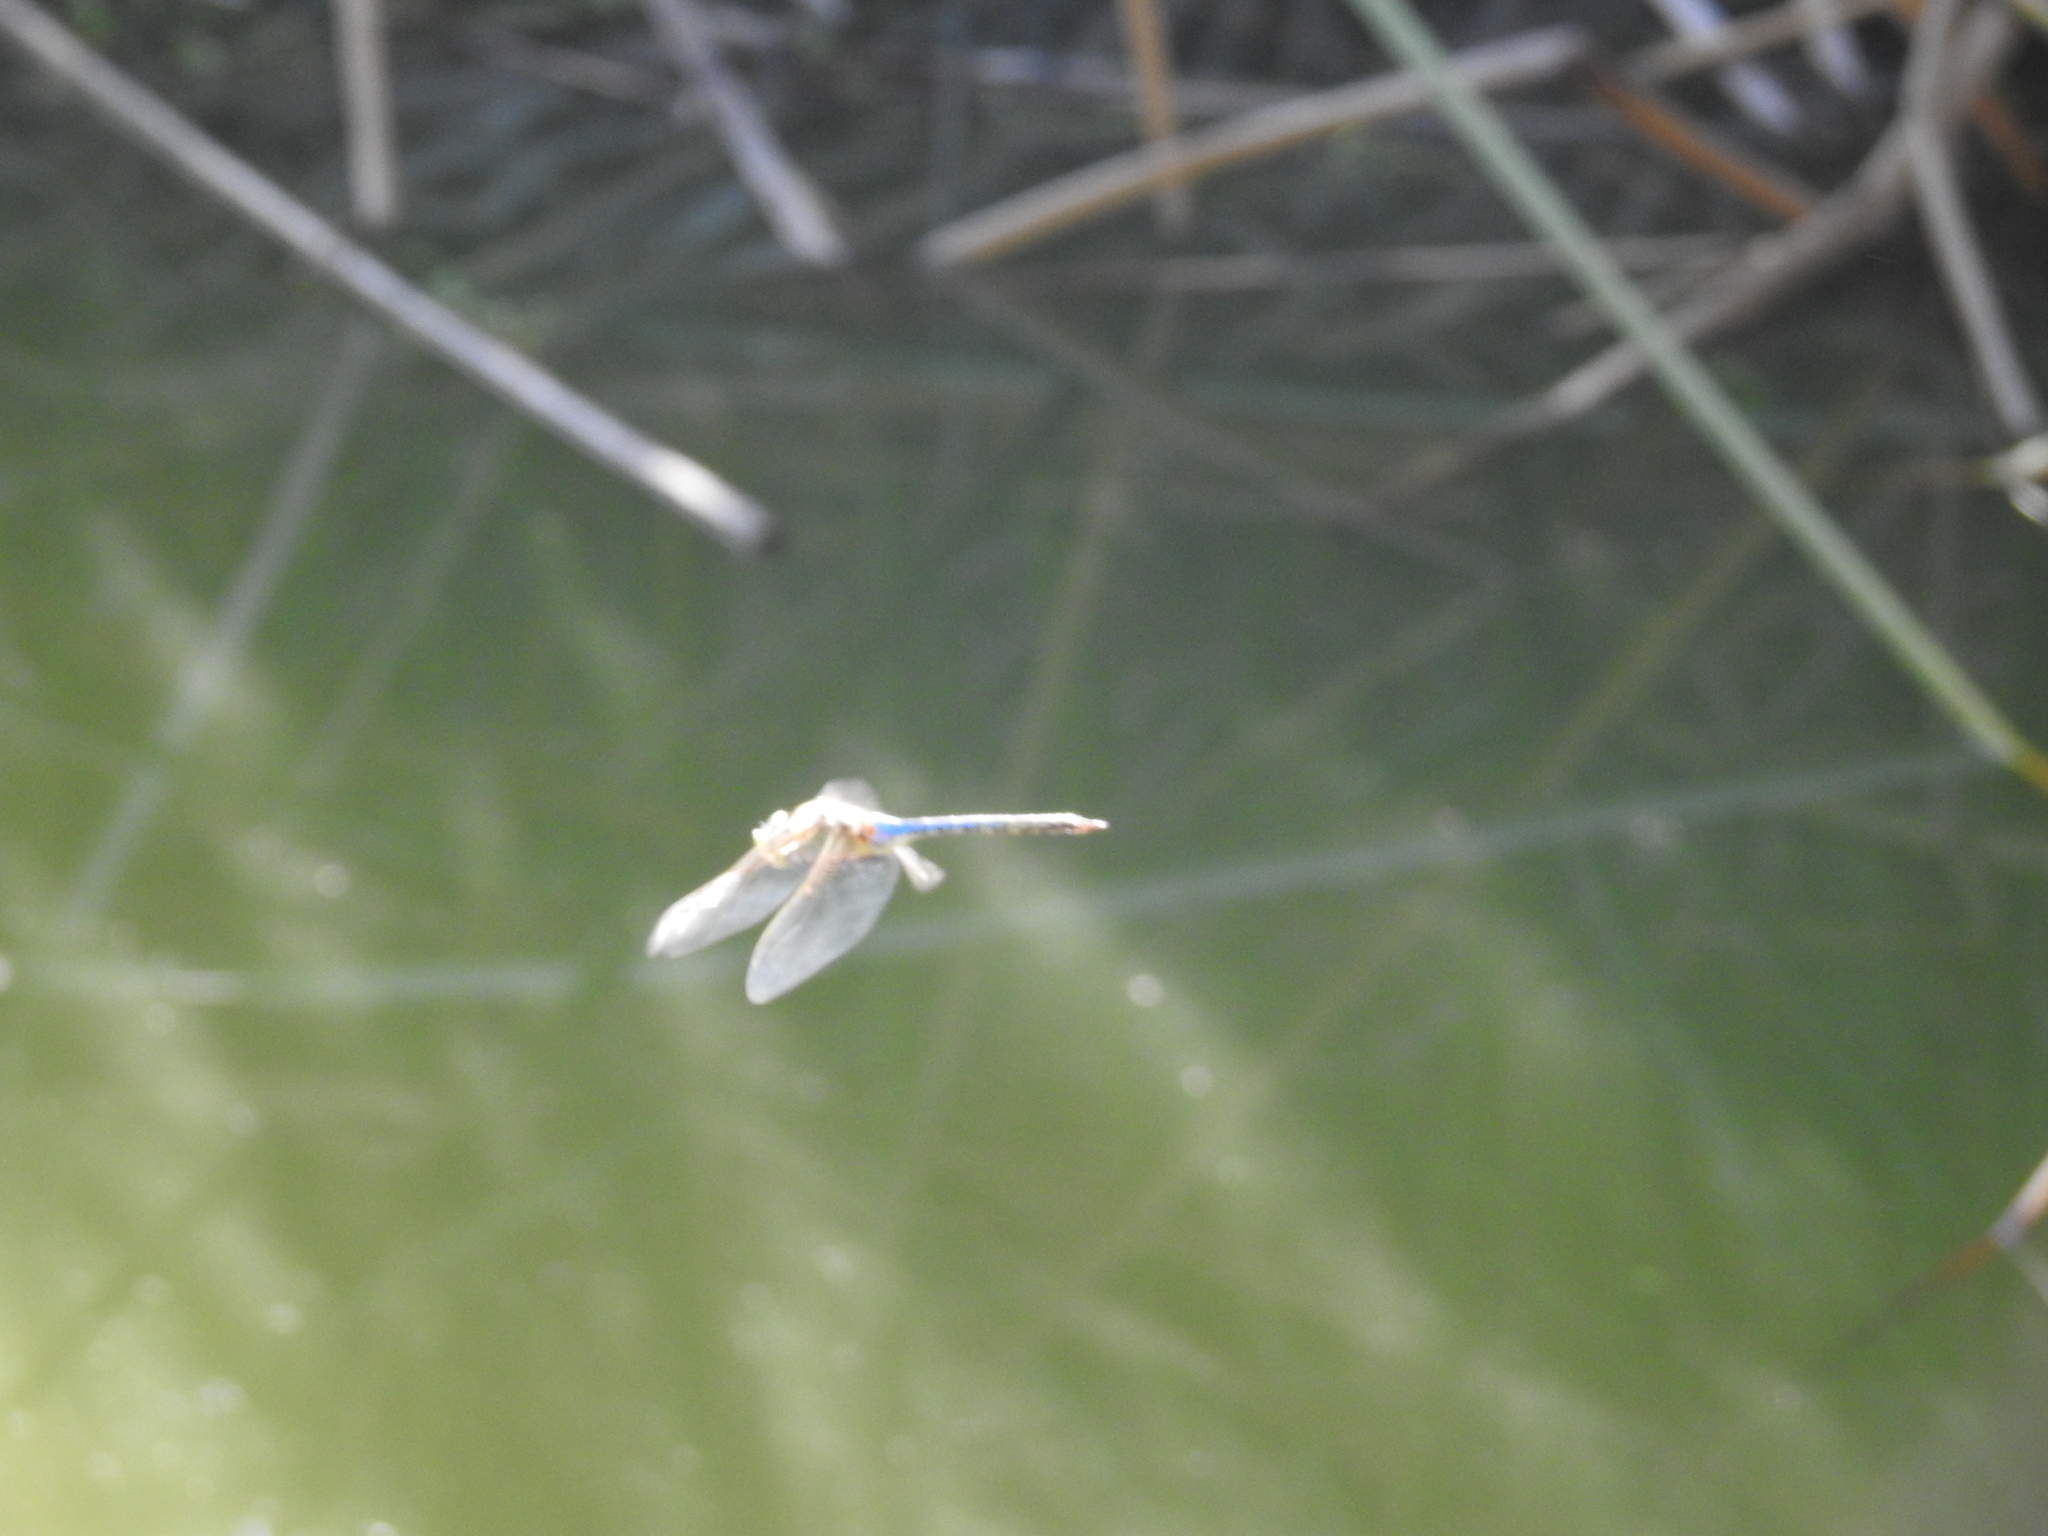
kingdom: Animalia
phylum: Arthropoda
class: Insecta
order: Odonata
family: Aeshnidae
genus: Anax
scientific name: Anax junius
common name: Common green darner
